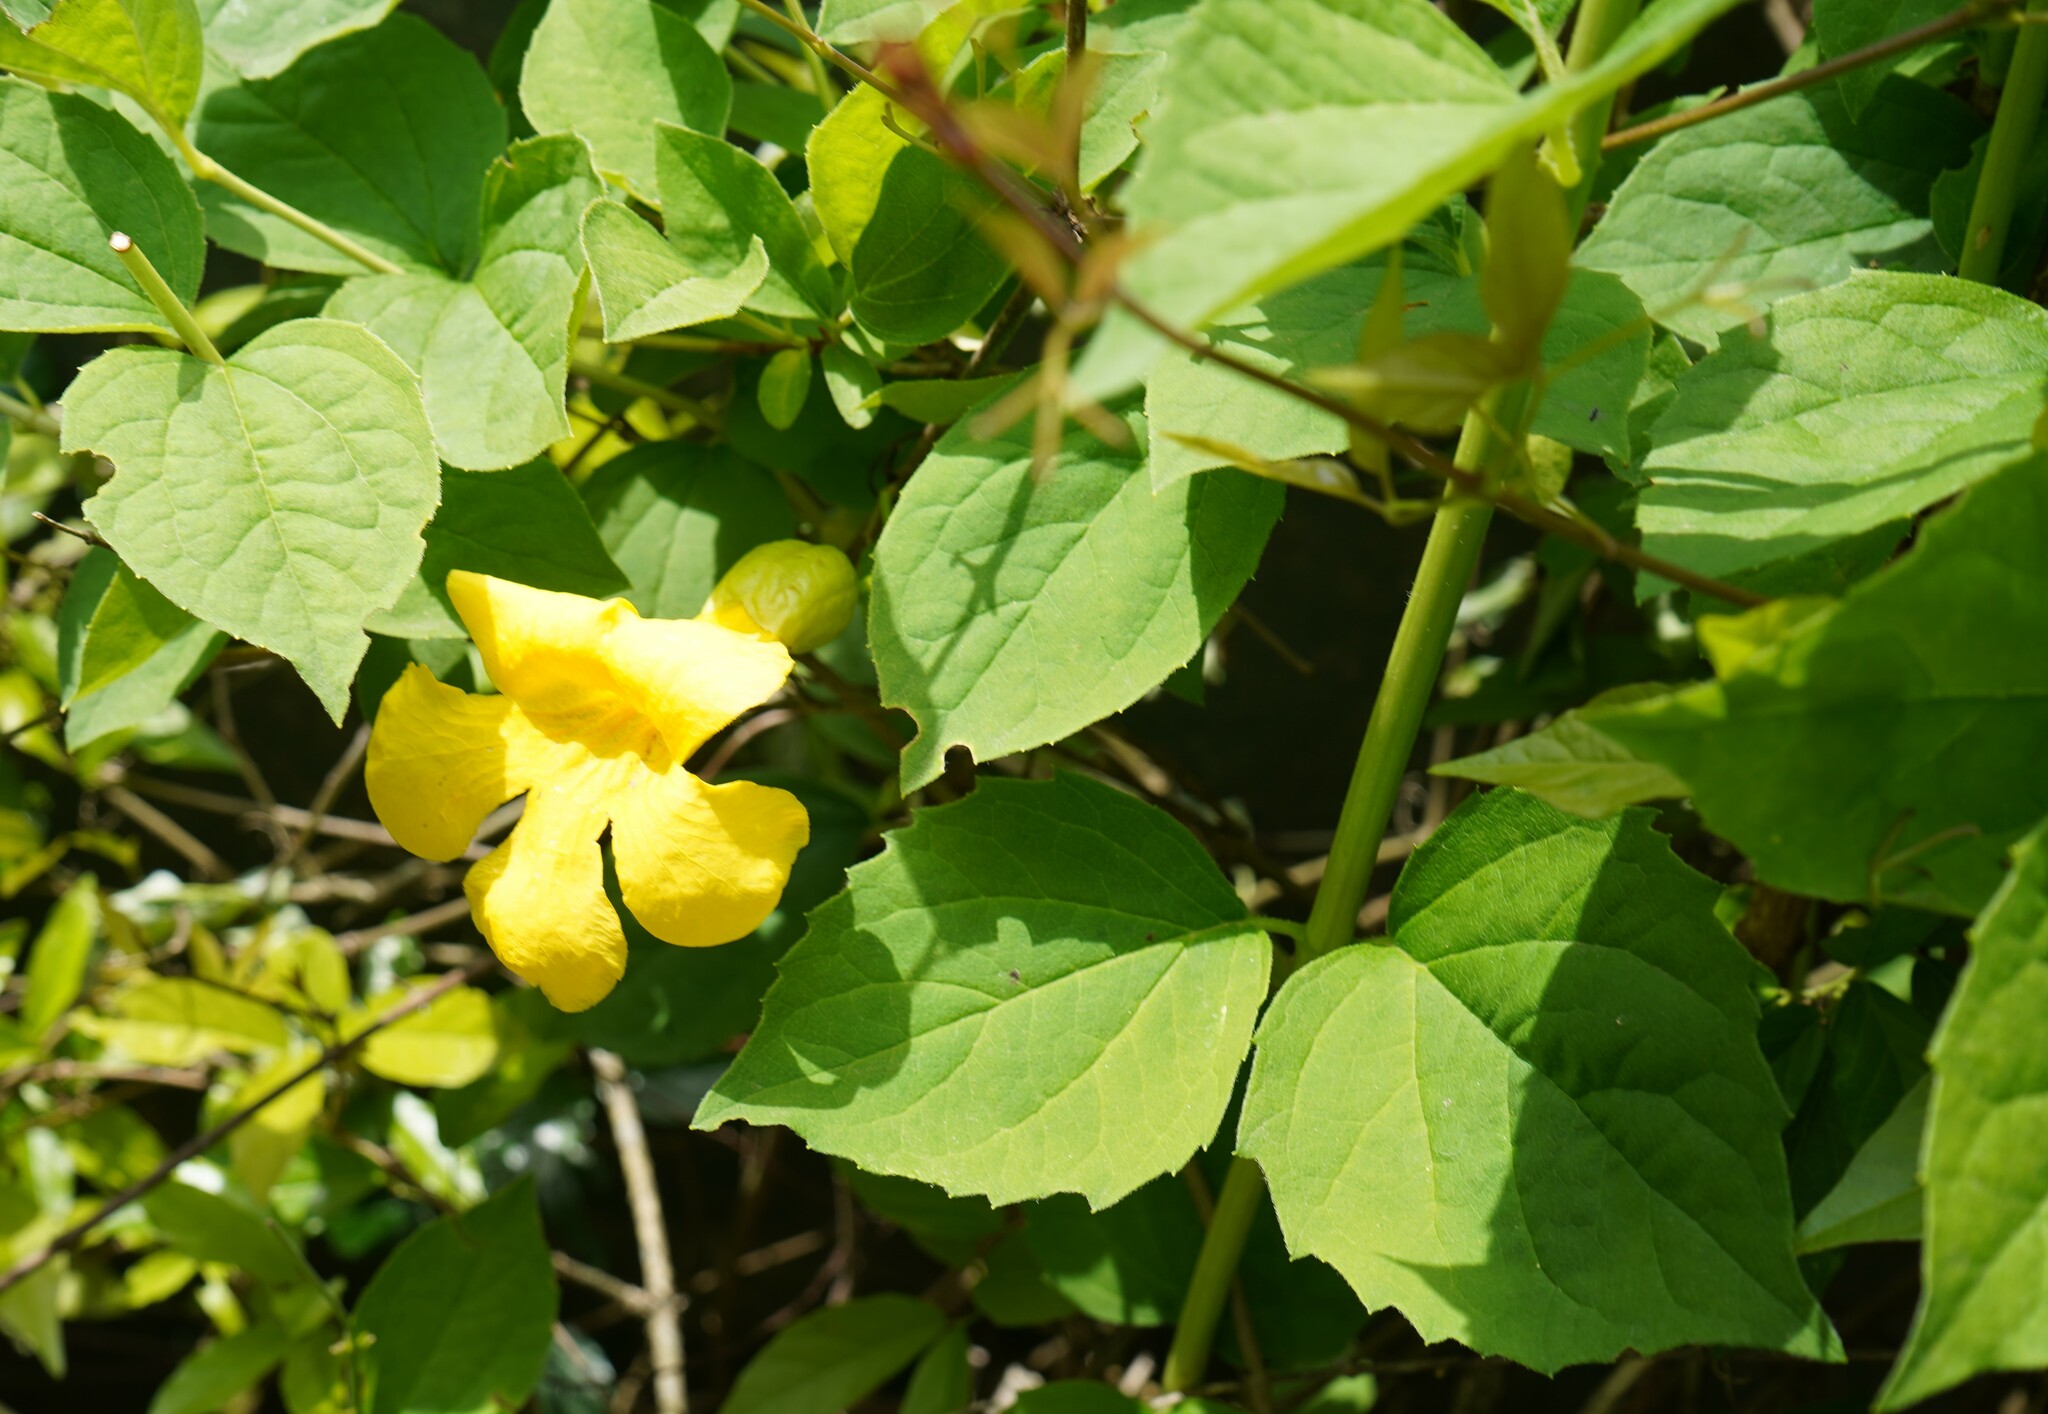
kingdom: Plantae
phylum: Tracheophyta
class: Magnoliopsida
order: Lamiales
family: Bignoniaceae
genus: Dolichandra
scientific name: Dolichandra unguis-cati
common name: Catclaw vine
